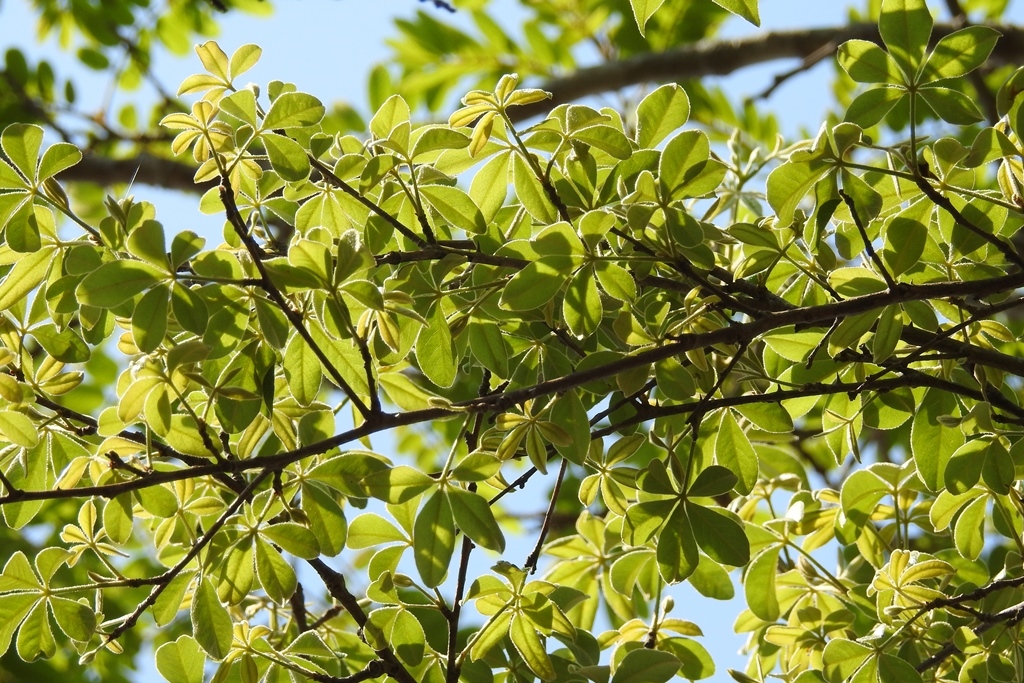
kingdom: Plantae
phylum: Tracheophyta
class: Magnoliopsida
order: Malvales
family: Malvaceae
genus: Ceiba
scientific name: Ceiba aesculifolia
